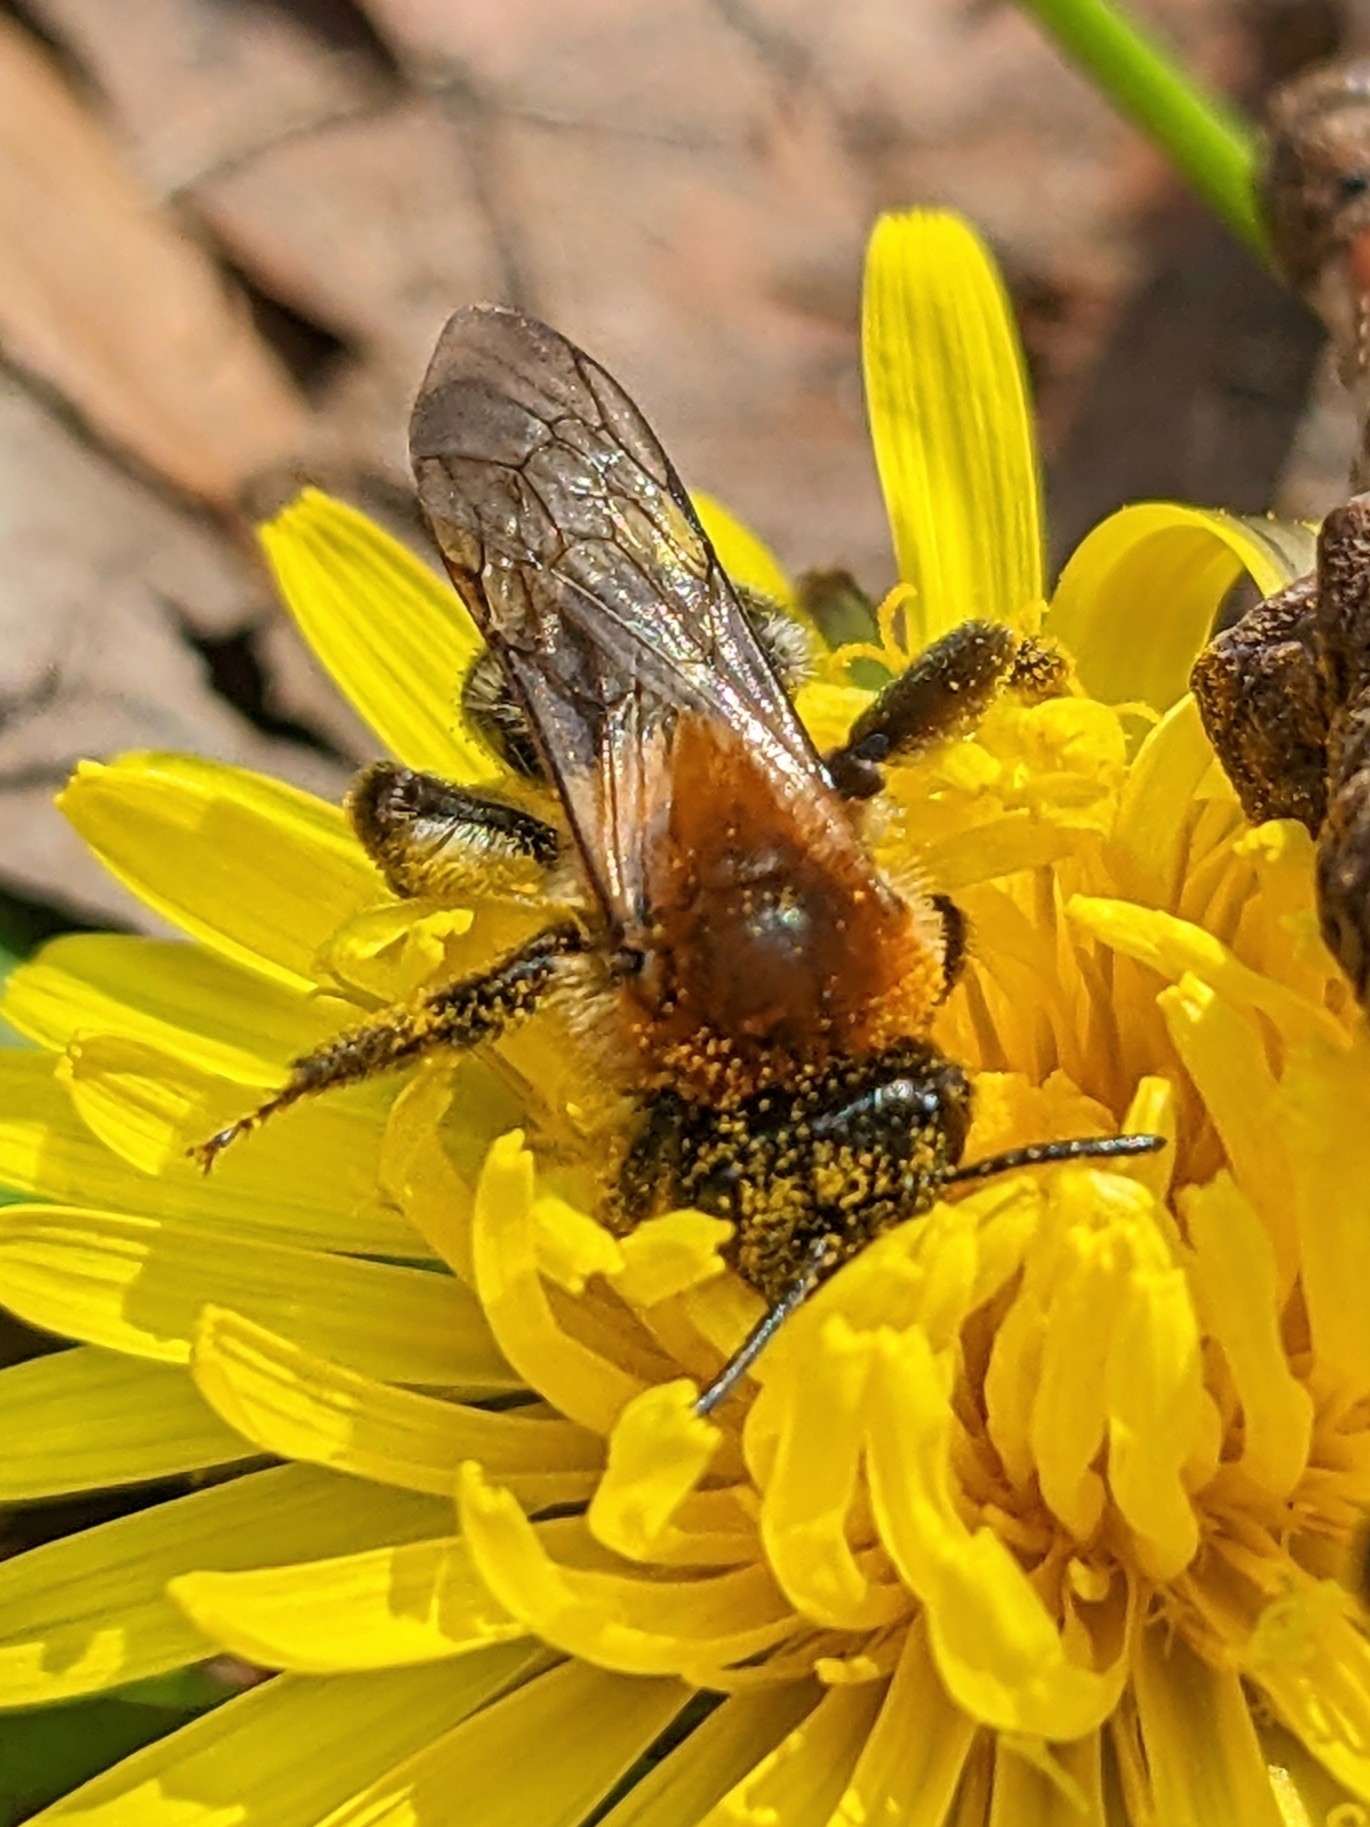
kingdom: Animalia
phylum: Arthropoda
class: Insecta
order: Hymenoptera
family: Andrenidae
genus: Andrena
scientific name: Andrena nitida
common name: Grey-patched mining bee
